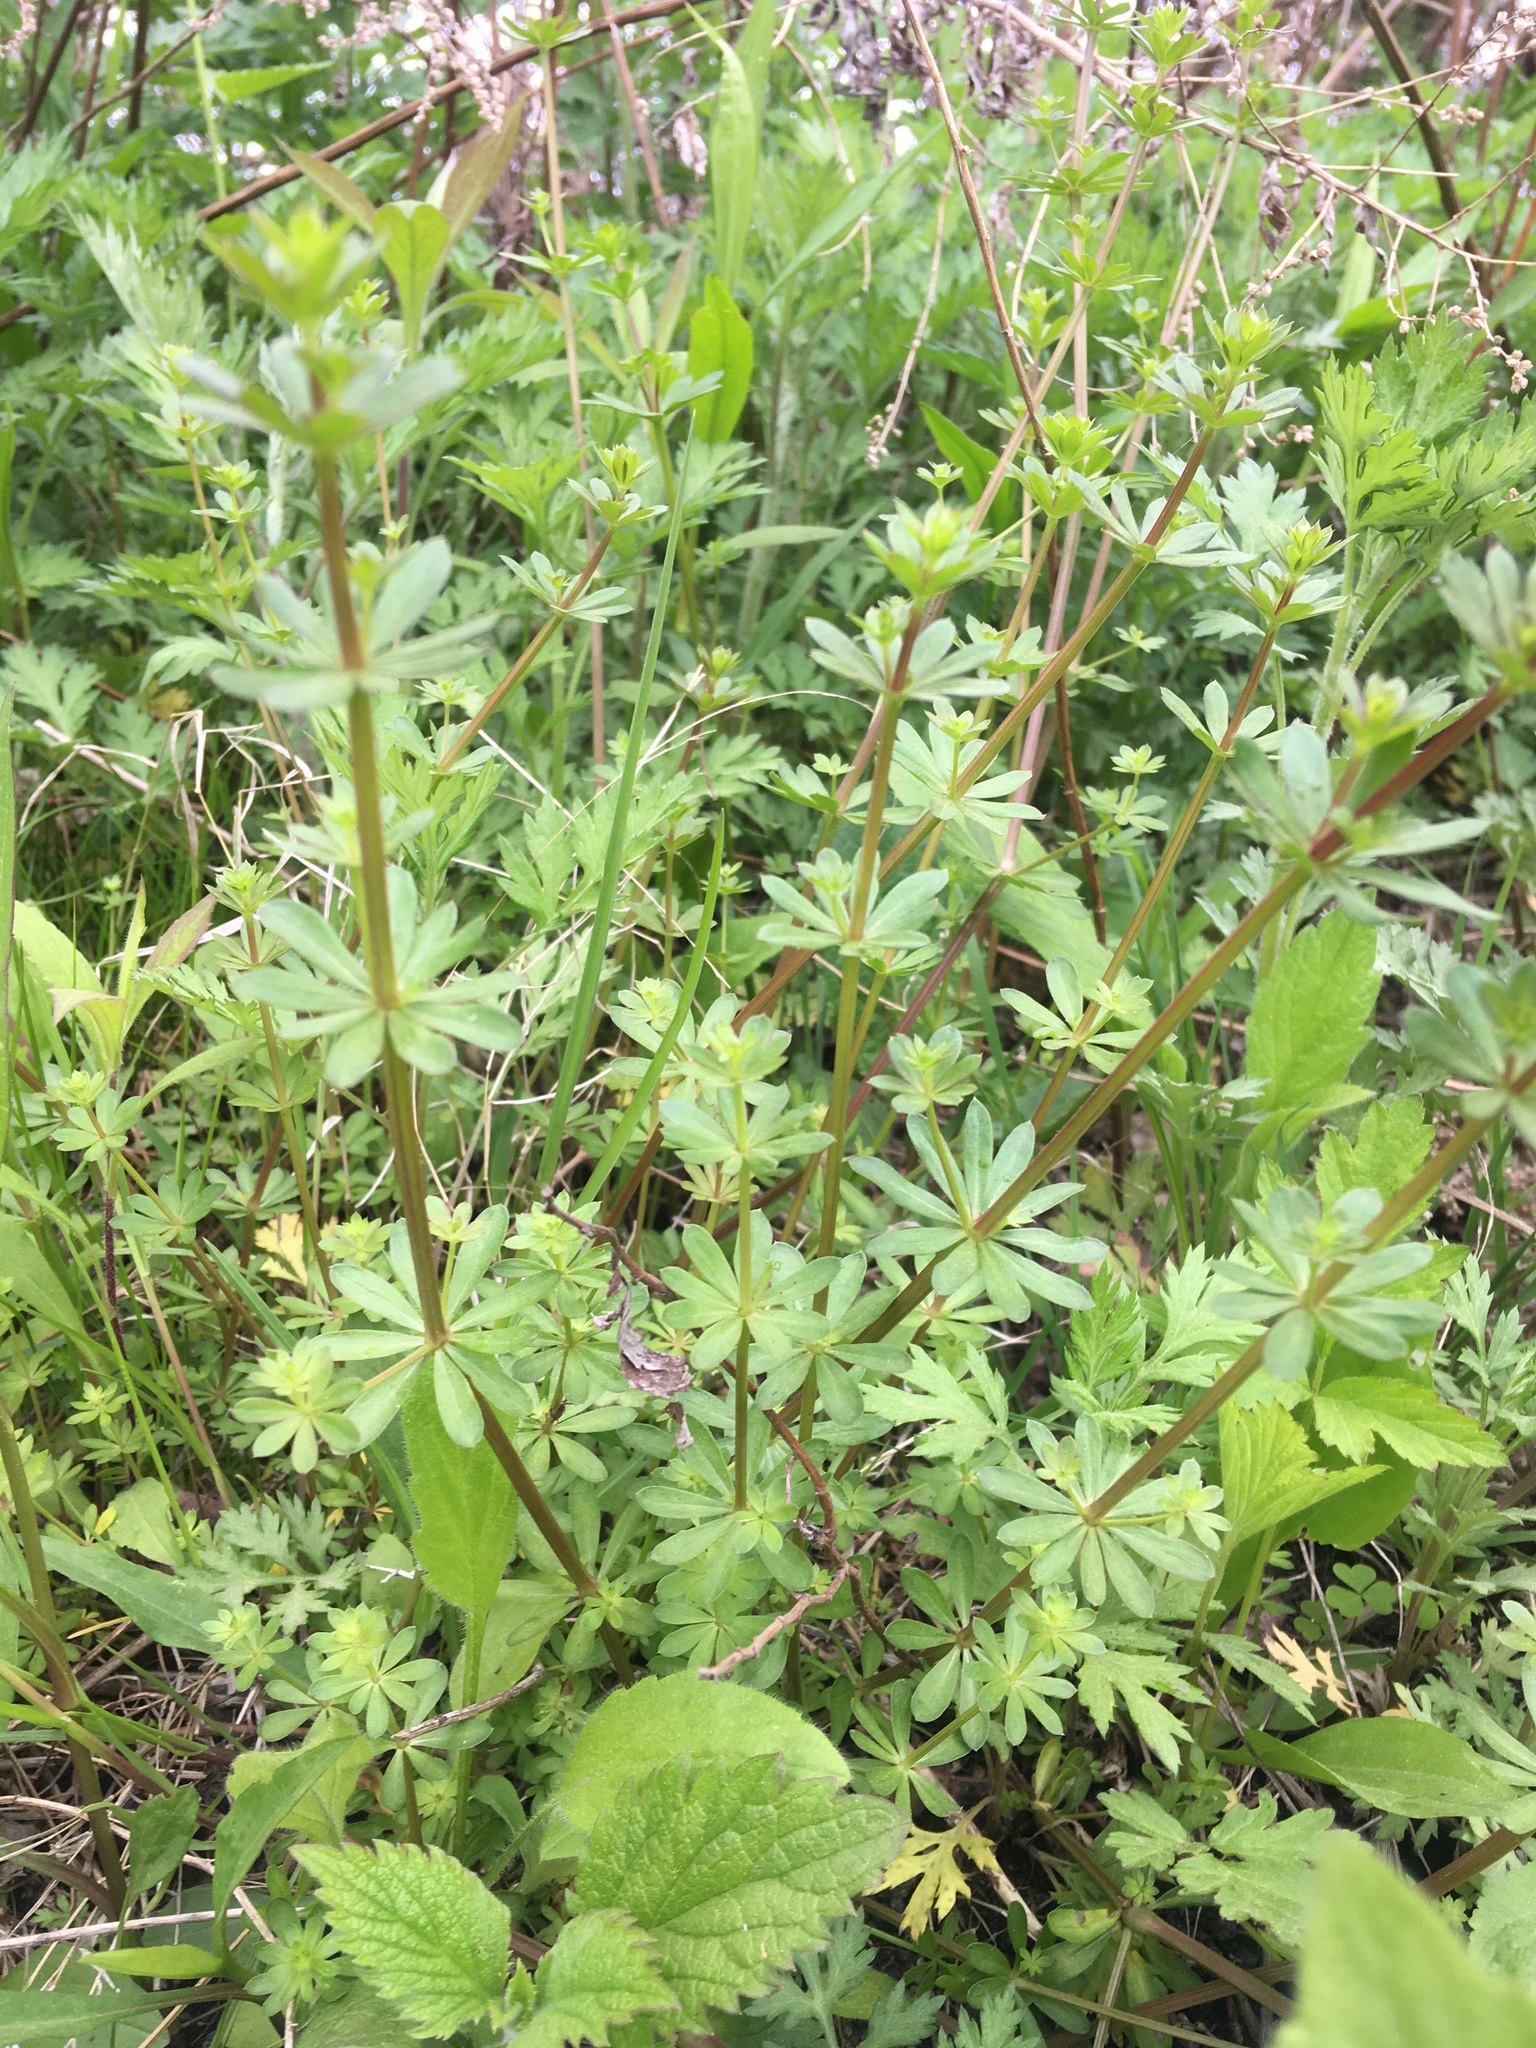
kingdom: Plantae
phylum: Tracheophyta
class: Magnoliopsida
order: Gentianales
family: Rubiaceae
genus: Galium
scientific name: Galium mollugo
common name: Hedge bedstraw
